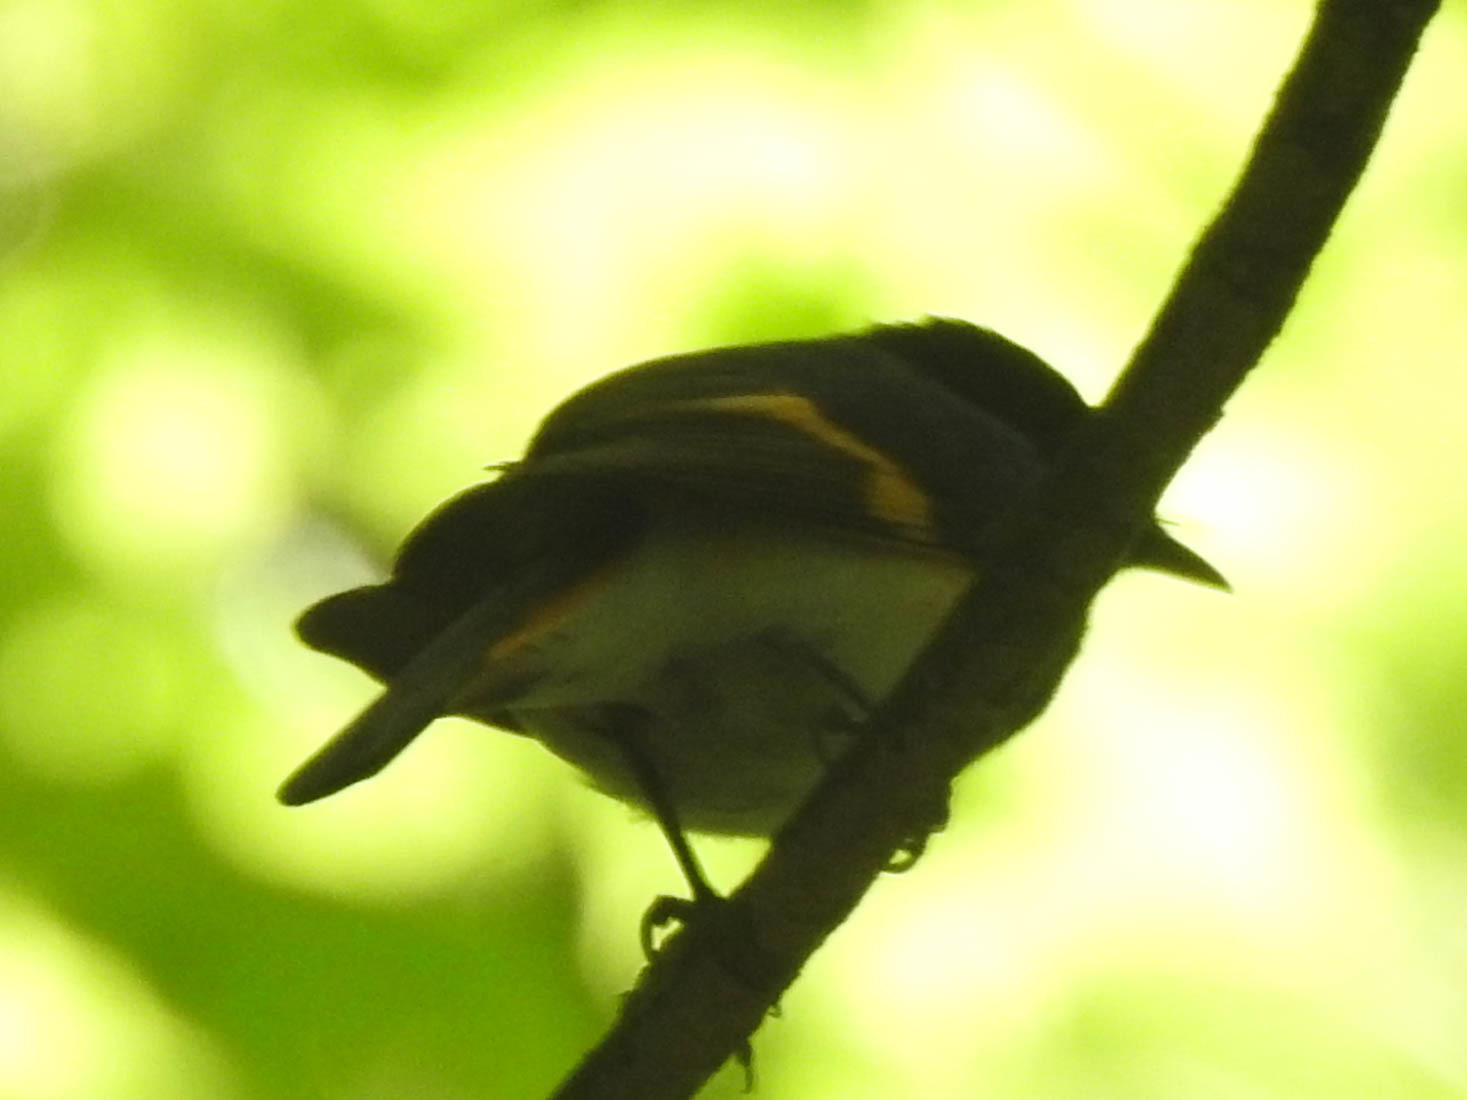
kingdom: Animalia
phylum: Chordata
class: Aves
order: Passeriformes
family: Parulidae
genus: Setophaga
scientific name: Setophaga ruticilla
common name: American redstart
